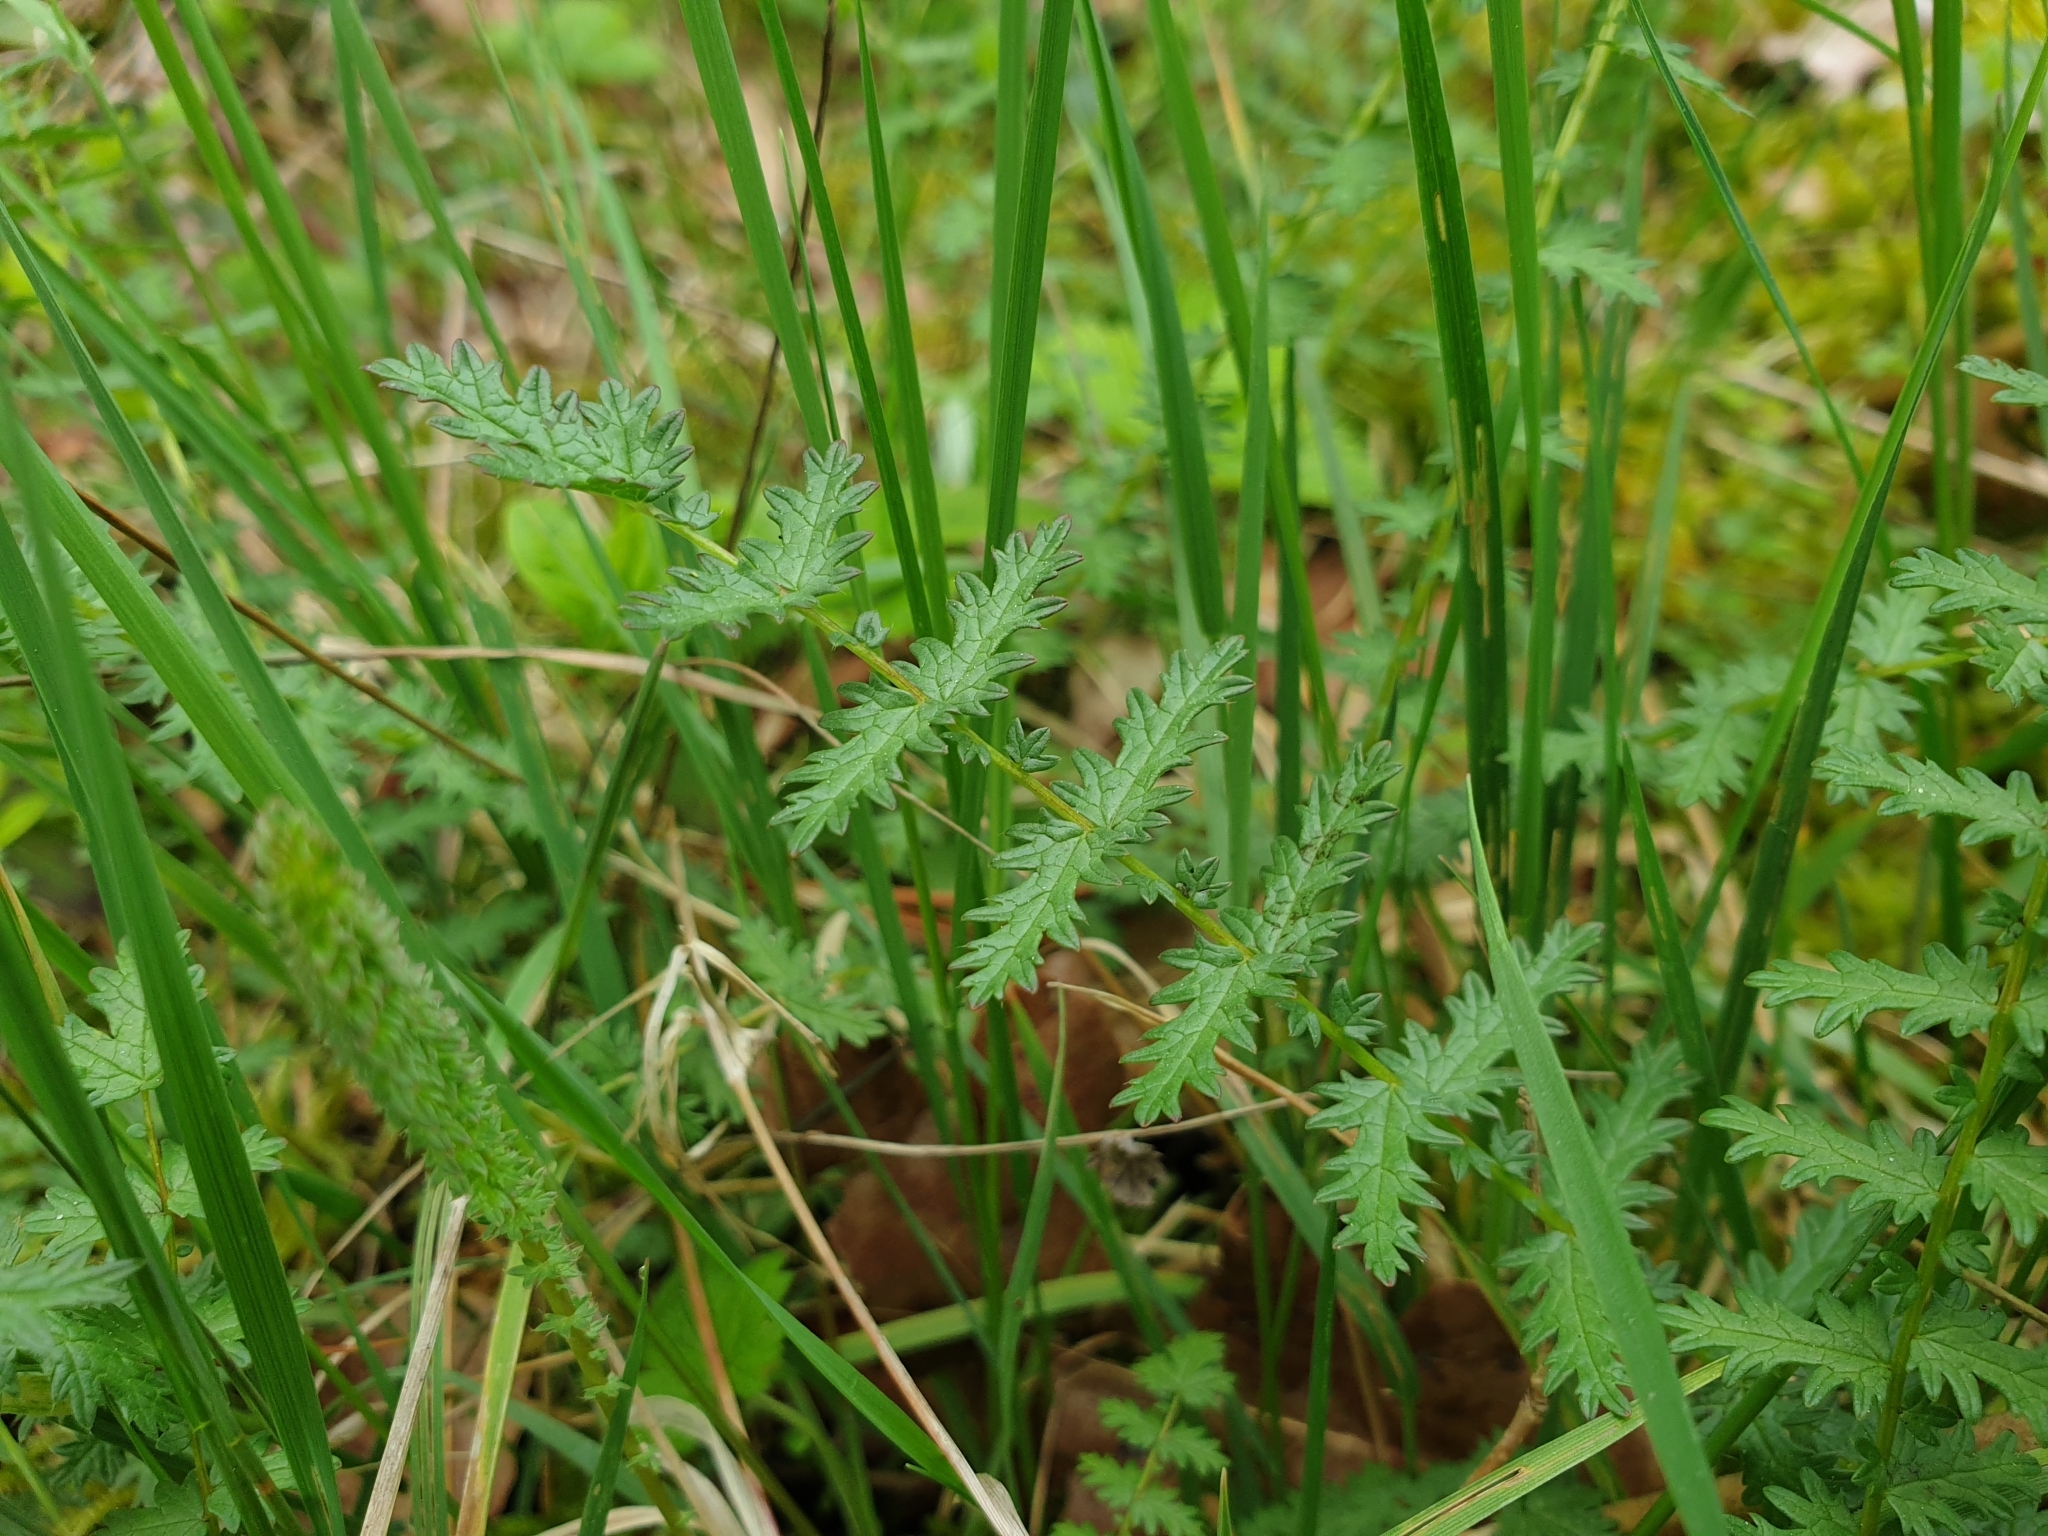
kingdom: Plantae
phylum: Tracheophyta
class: Magnoliopsida
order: Rosales
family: Rosaceae
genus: Filipendula
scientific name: Filipendula vulgaris
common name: Dropwort
